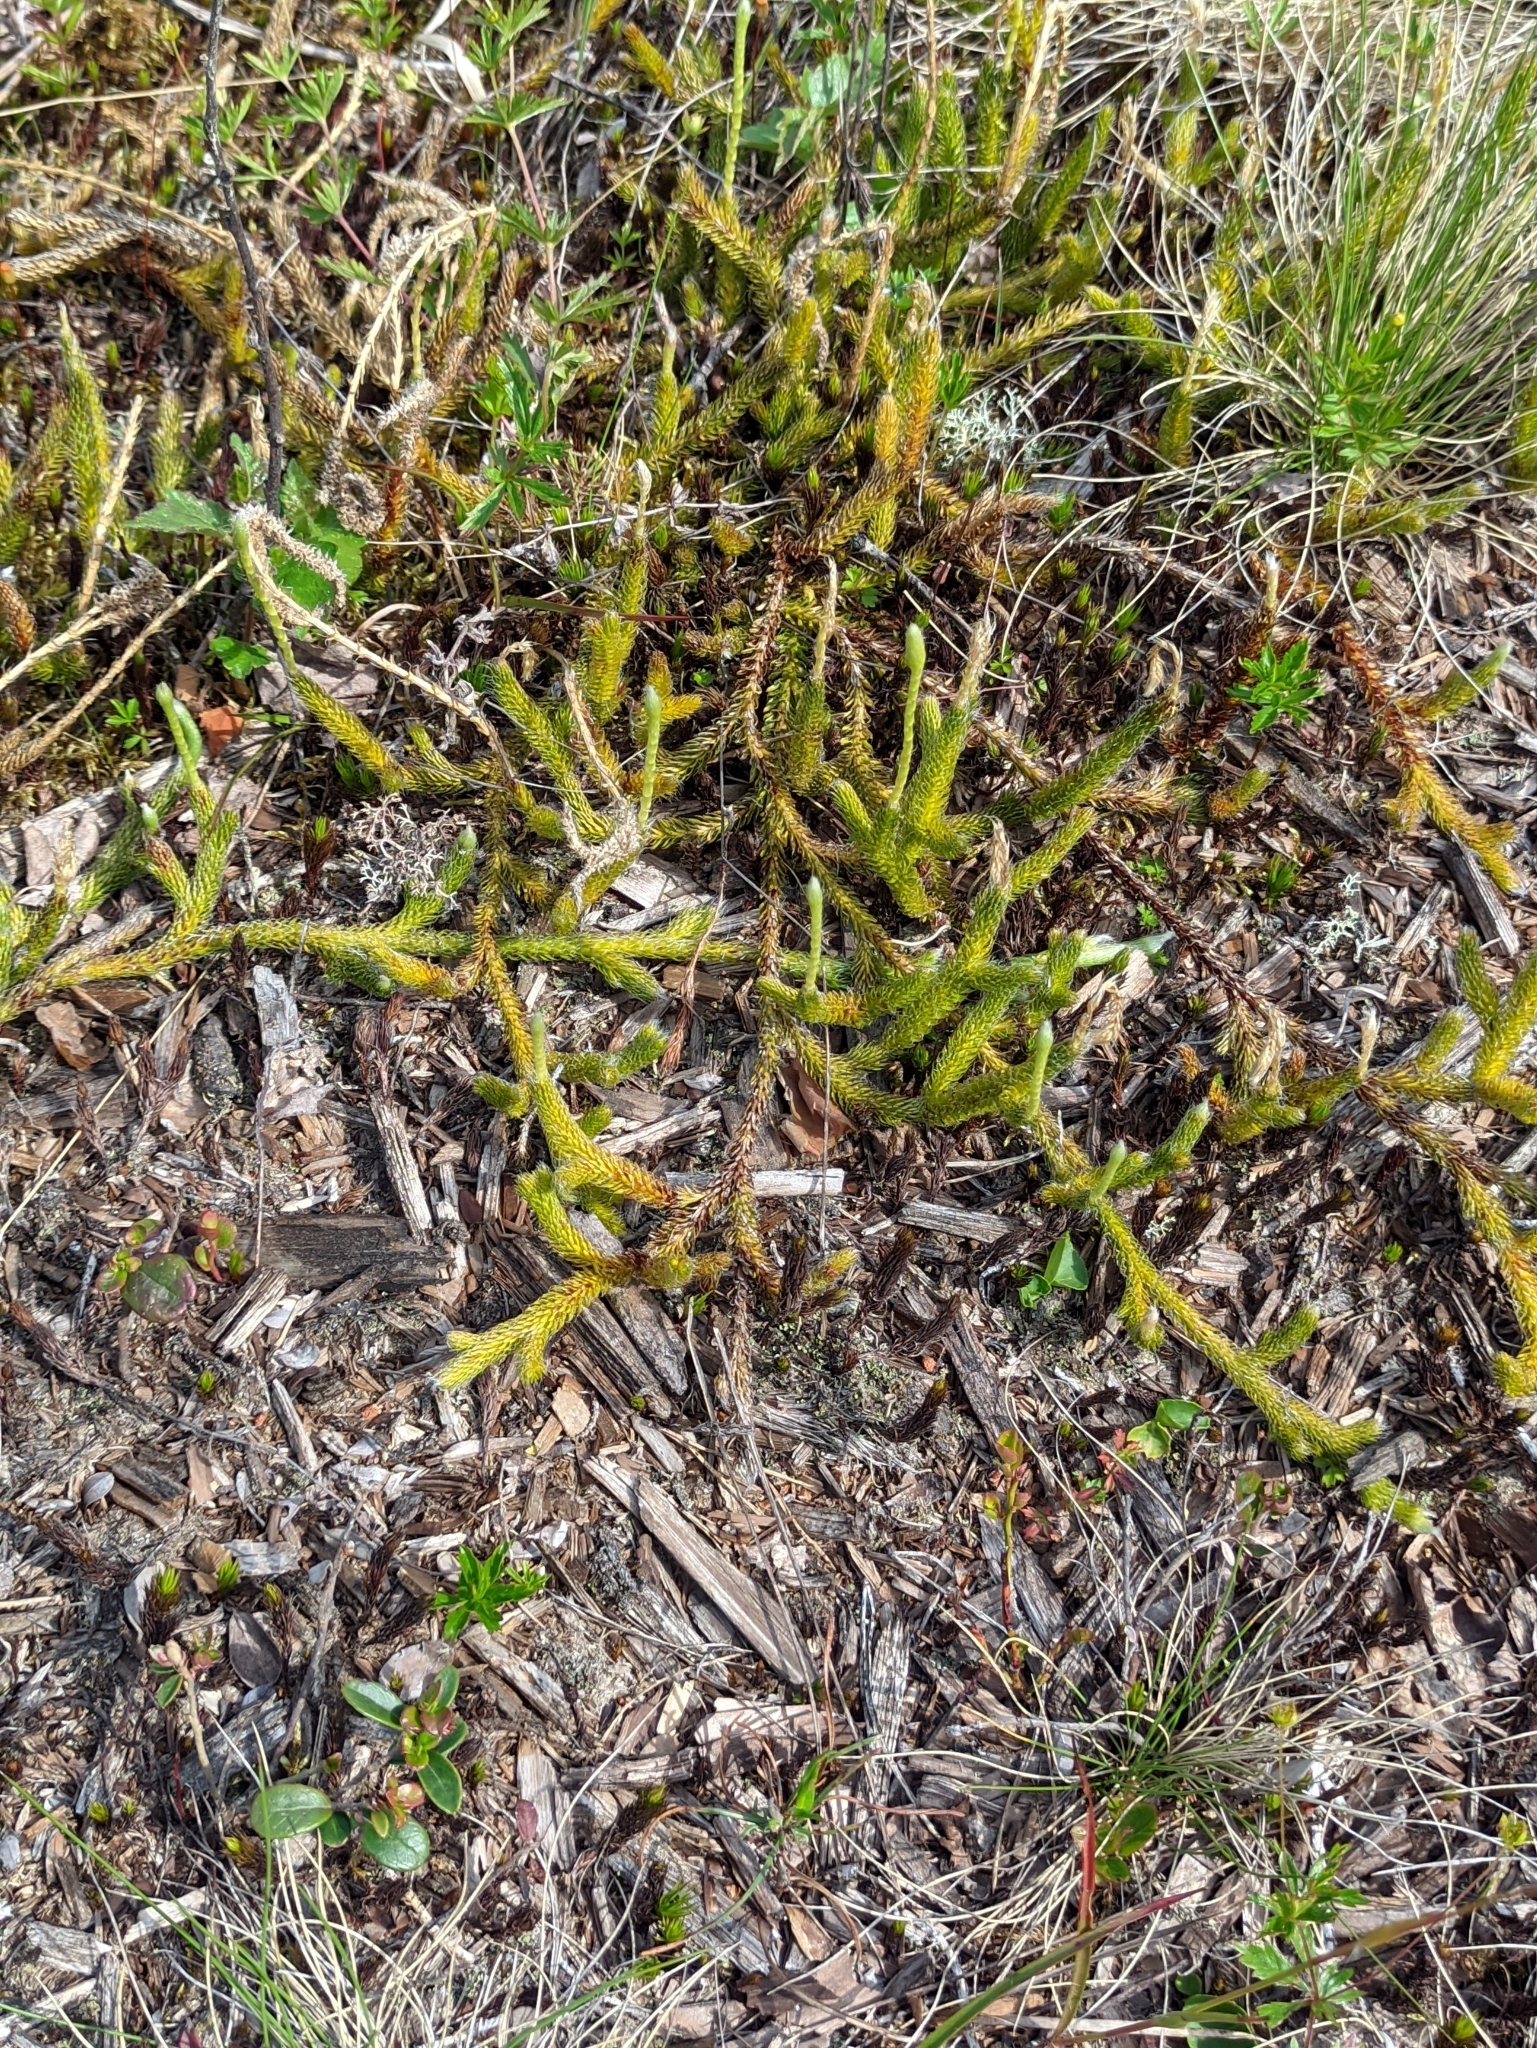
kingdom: Plantae
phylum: Tracheophyta
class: Lycopodiopsida
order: Lycopodiales
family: Lycopodiaceae
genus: Lycopodium
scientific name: Lycopodium clavatum
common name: Stag's-horn clubmoss
